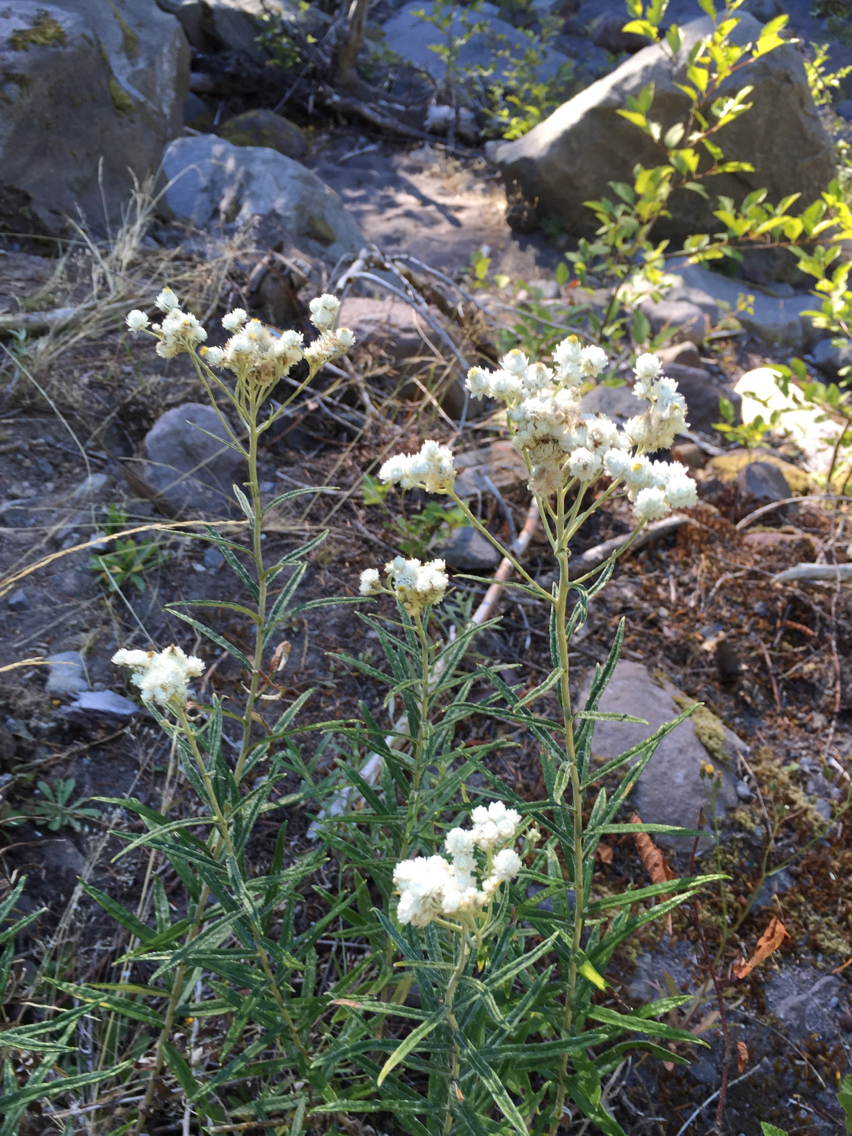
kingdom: Plantae
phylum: Tracheophyta
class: Magnoliopsida
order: Asterales
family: Asteraceae
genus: Anaphalis
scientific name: Anaphalis margaritacea
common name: Pearly everlasting
